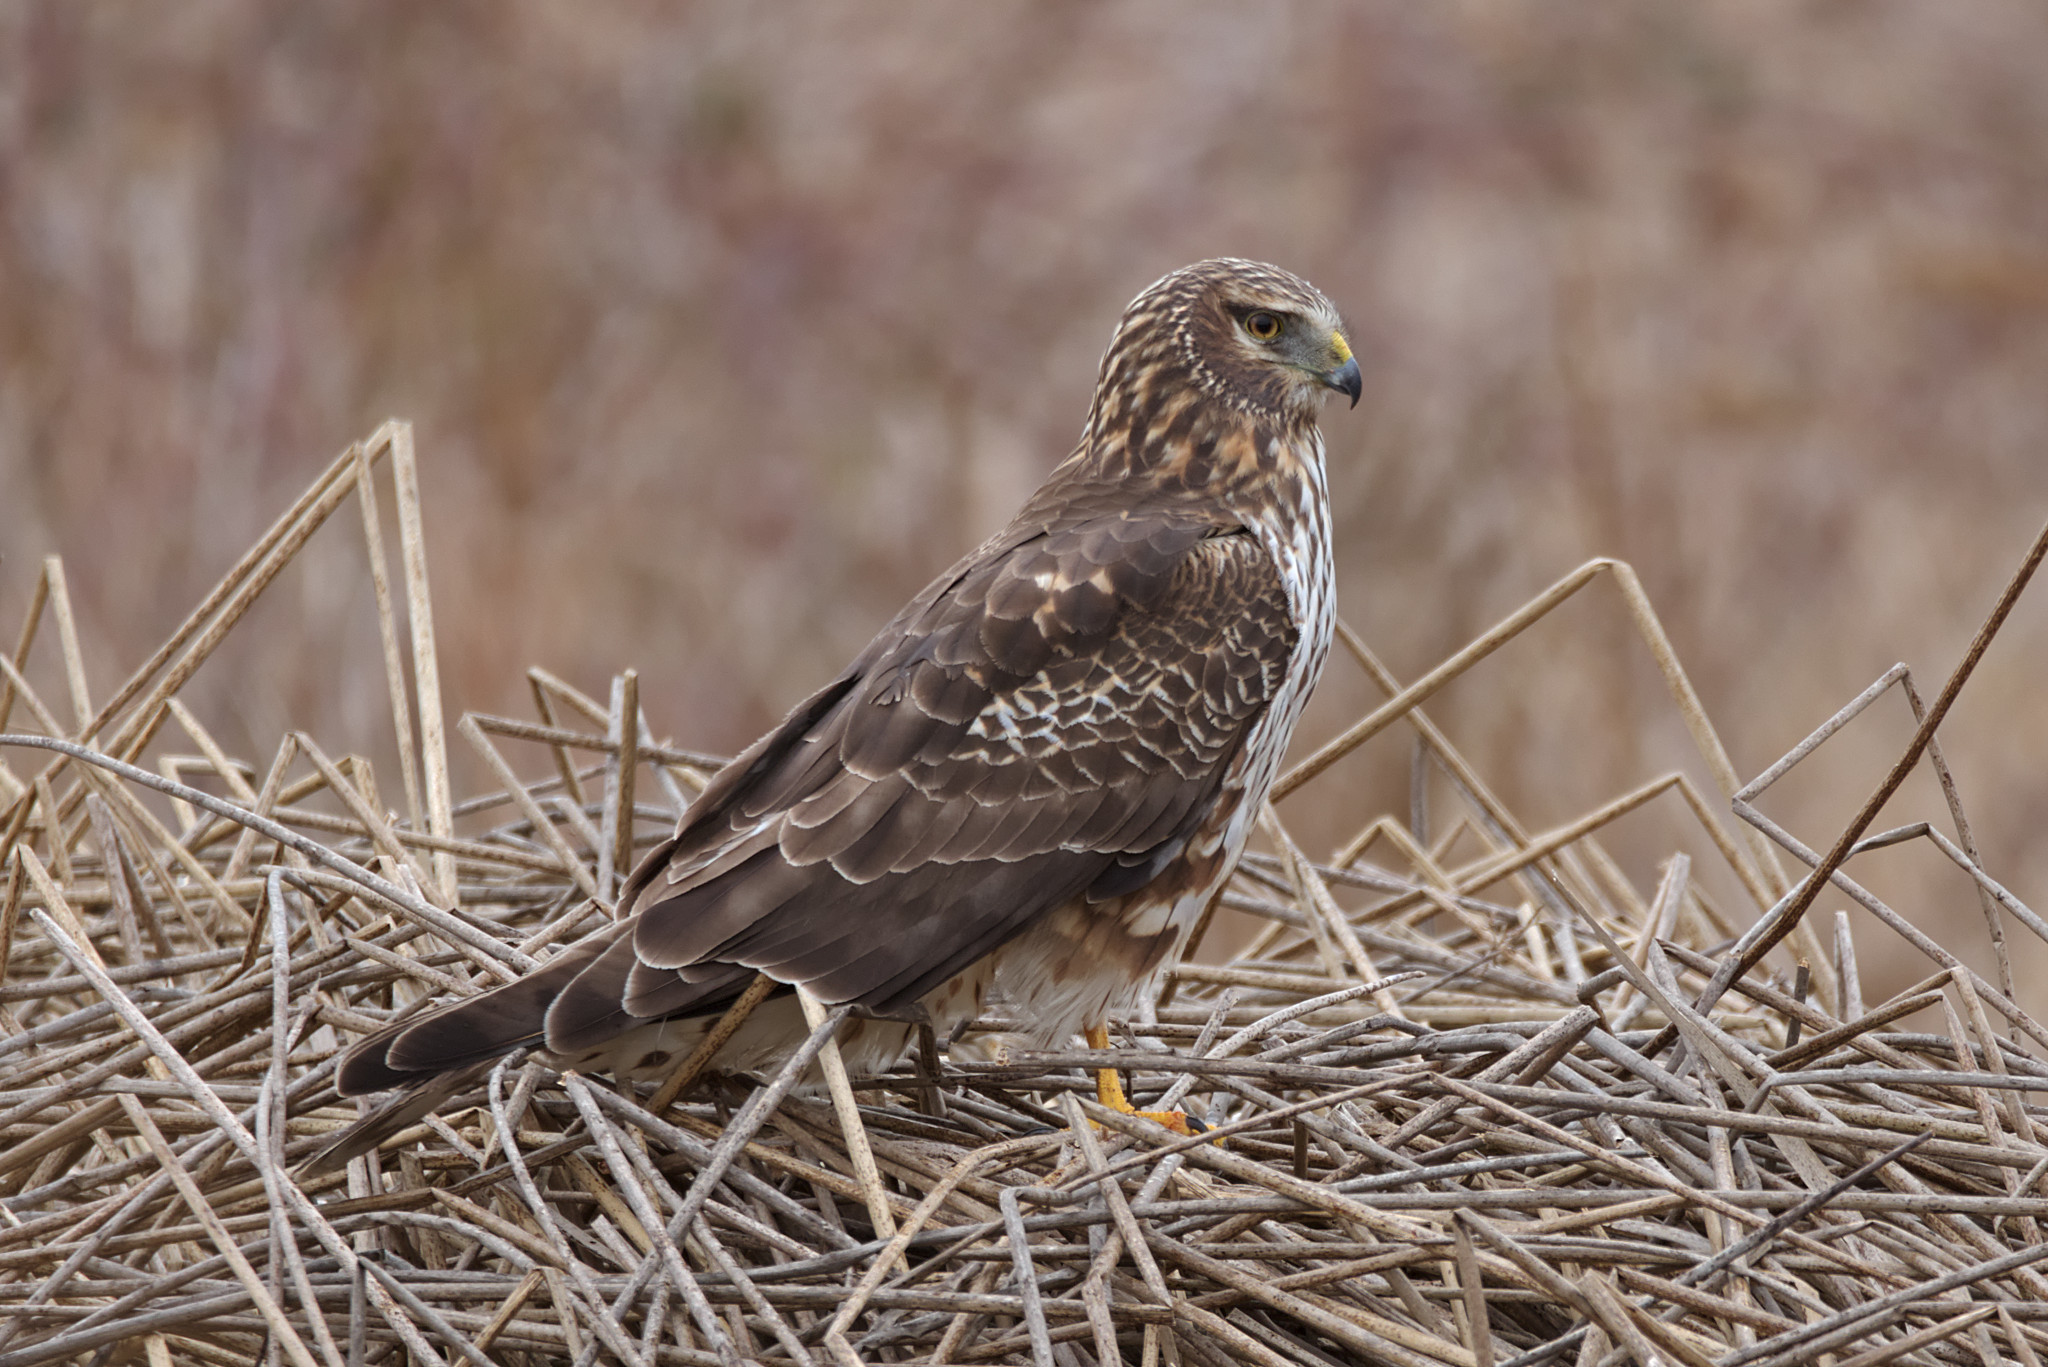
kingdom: Animalia
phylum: Chordata
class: Aves
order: Accipitriformes
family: Accipitridae
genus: Circus
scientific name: Circus cyaneus
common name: Hen harrier
